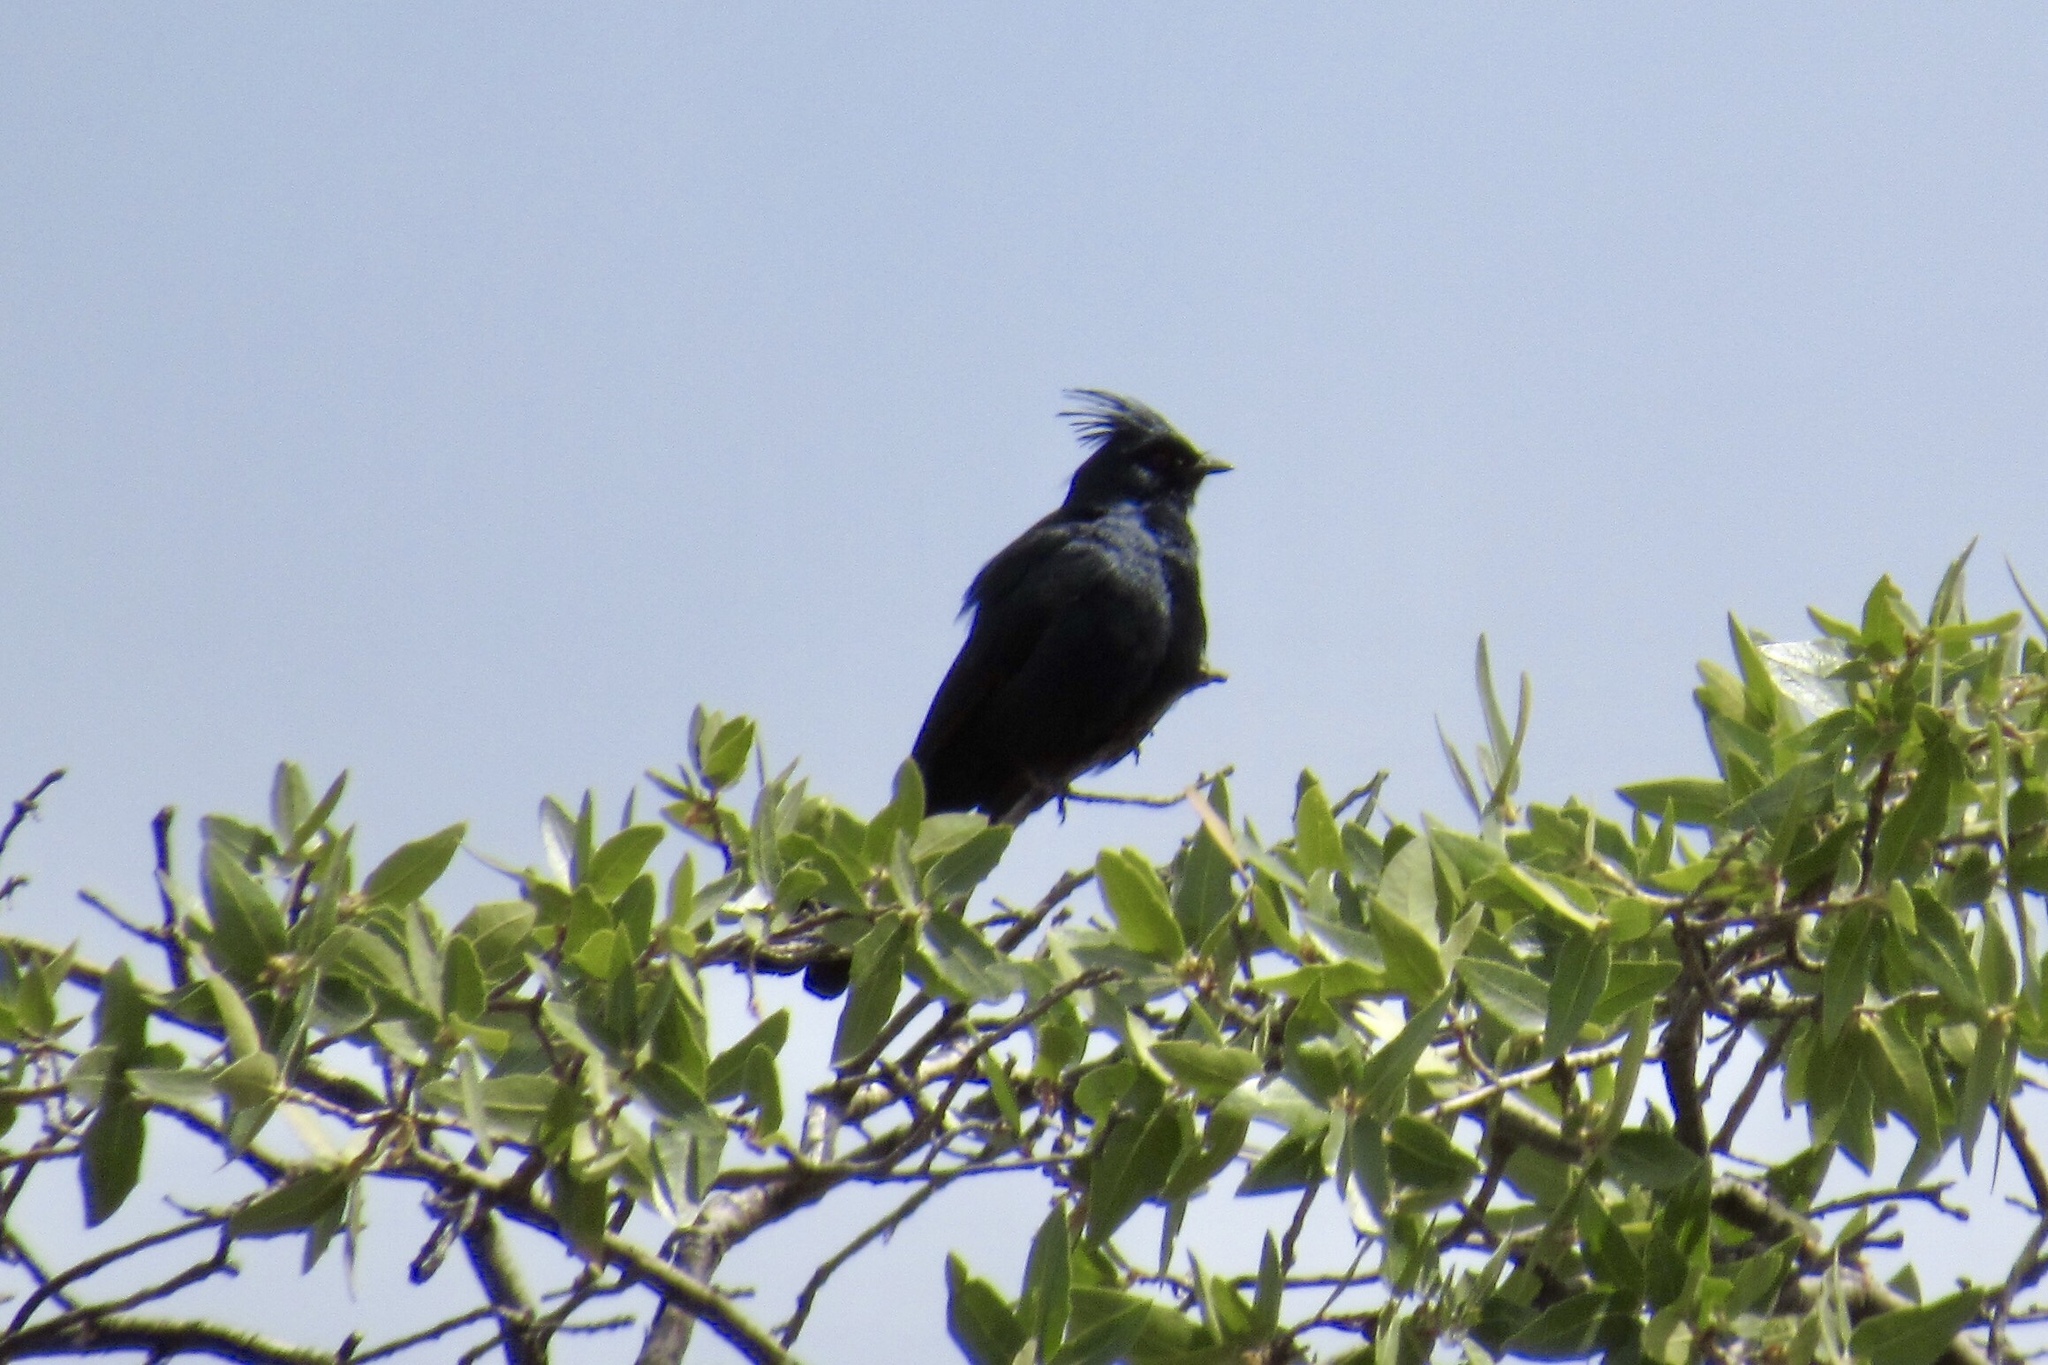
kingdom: Animalia
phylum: Chordata
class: Aves
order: Passeriformes
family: Ptilogonatidae
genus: Phainopepla
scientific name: Phainopepla nitens
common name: Phainopepla
